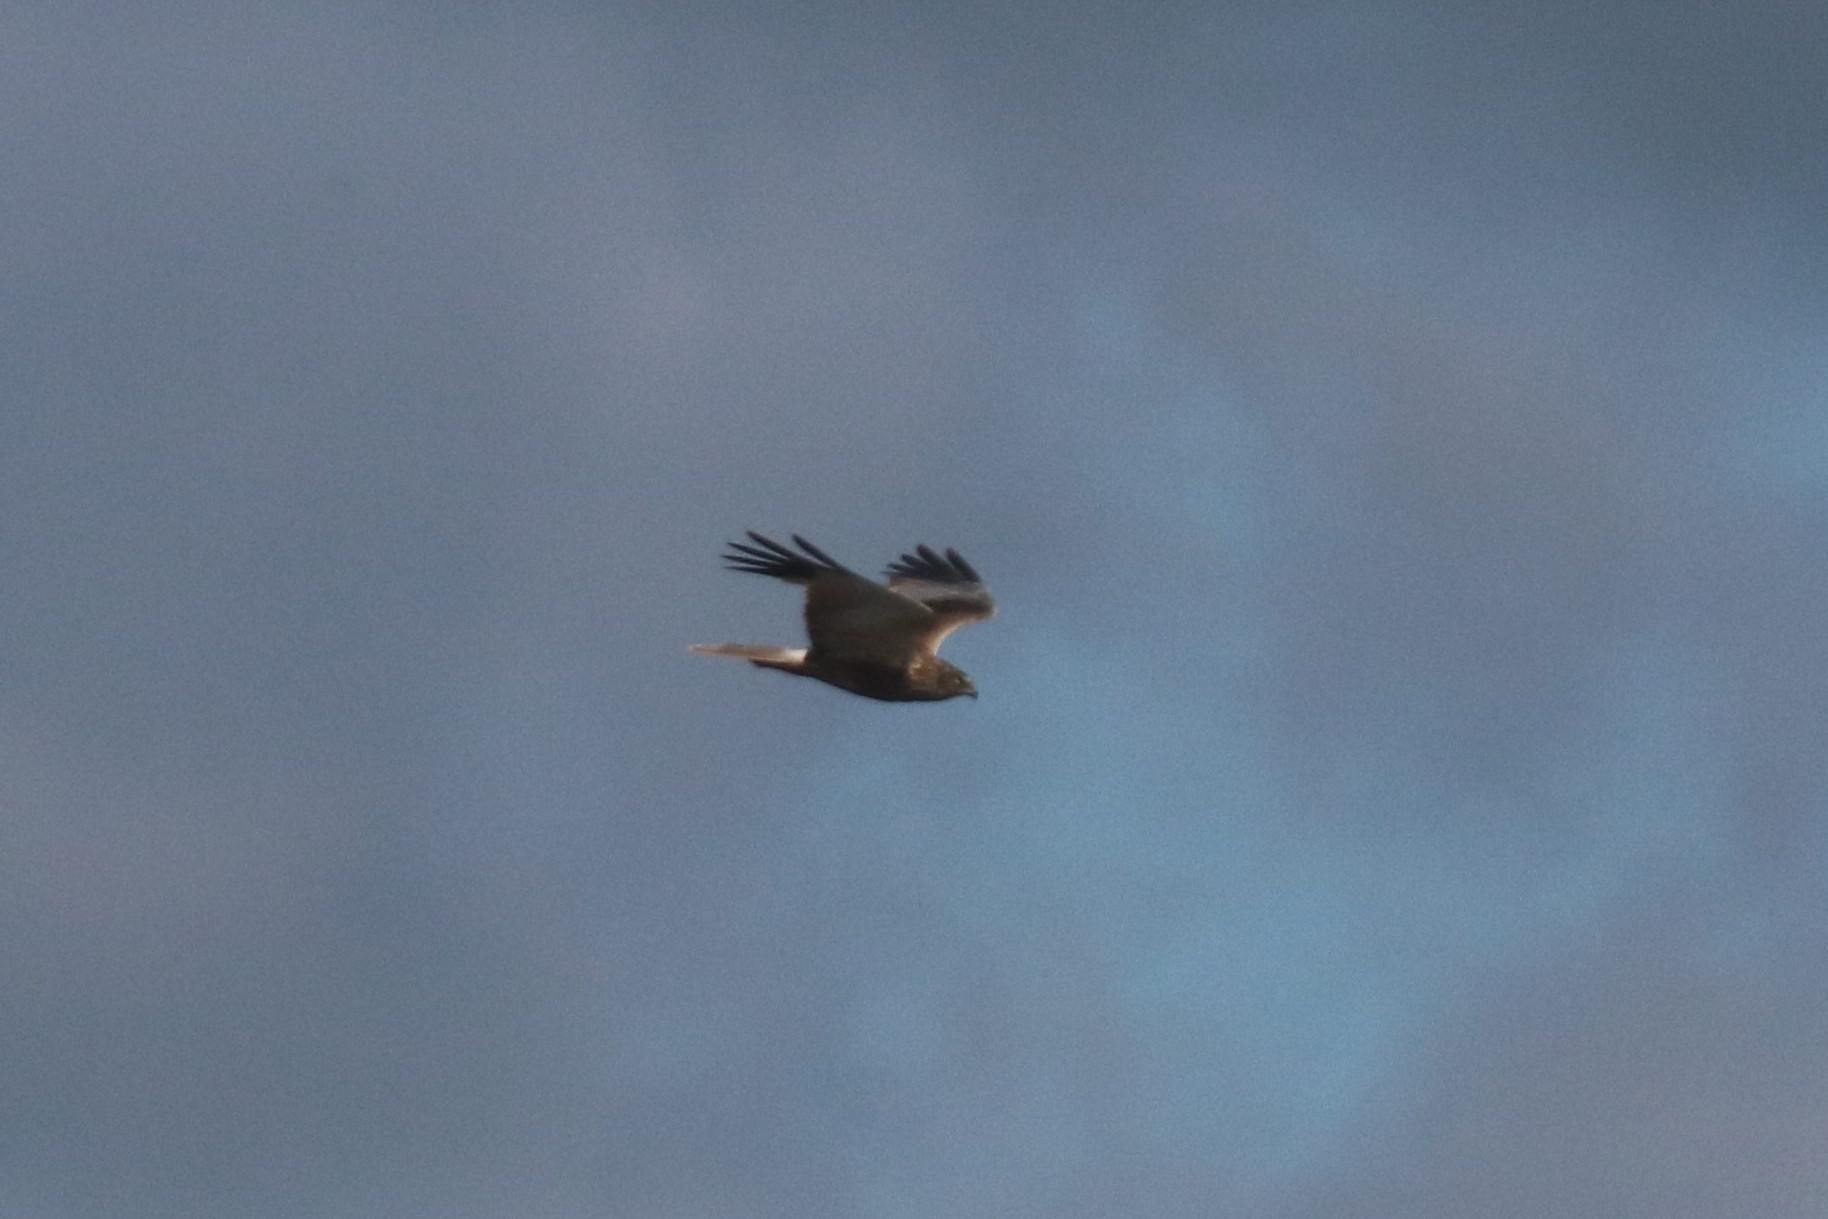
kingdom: Animalia
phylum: Chordata
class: Aves
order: Accipitriformes
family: Accipitridae
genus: Circus
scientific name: Circus aeruginosus
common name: Western marsh harrier
